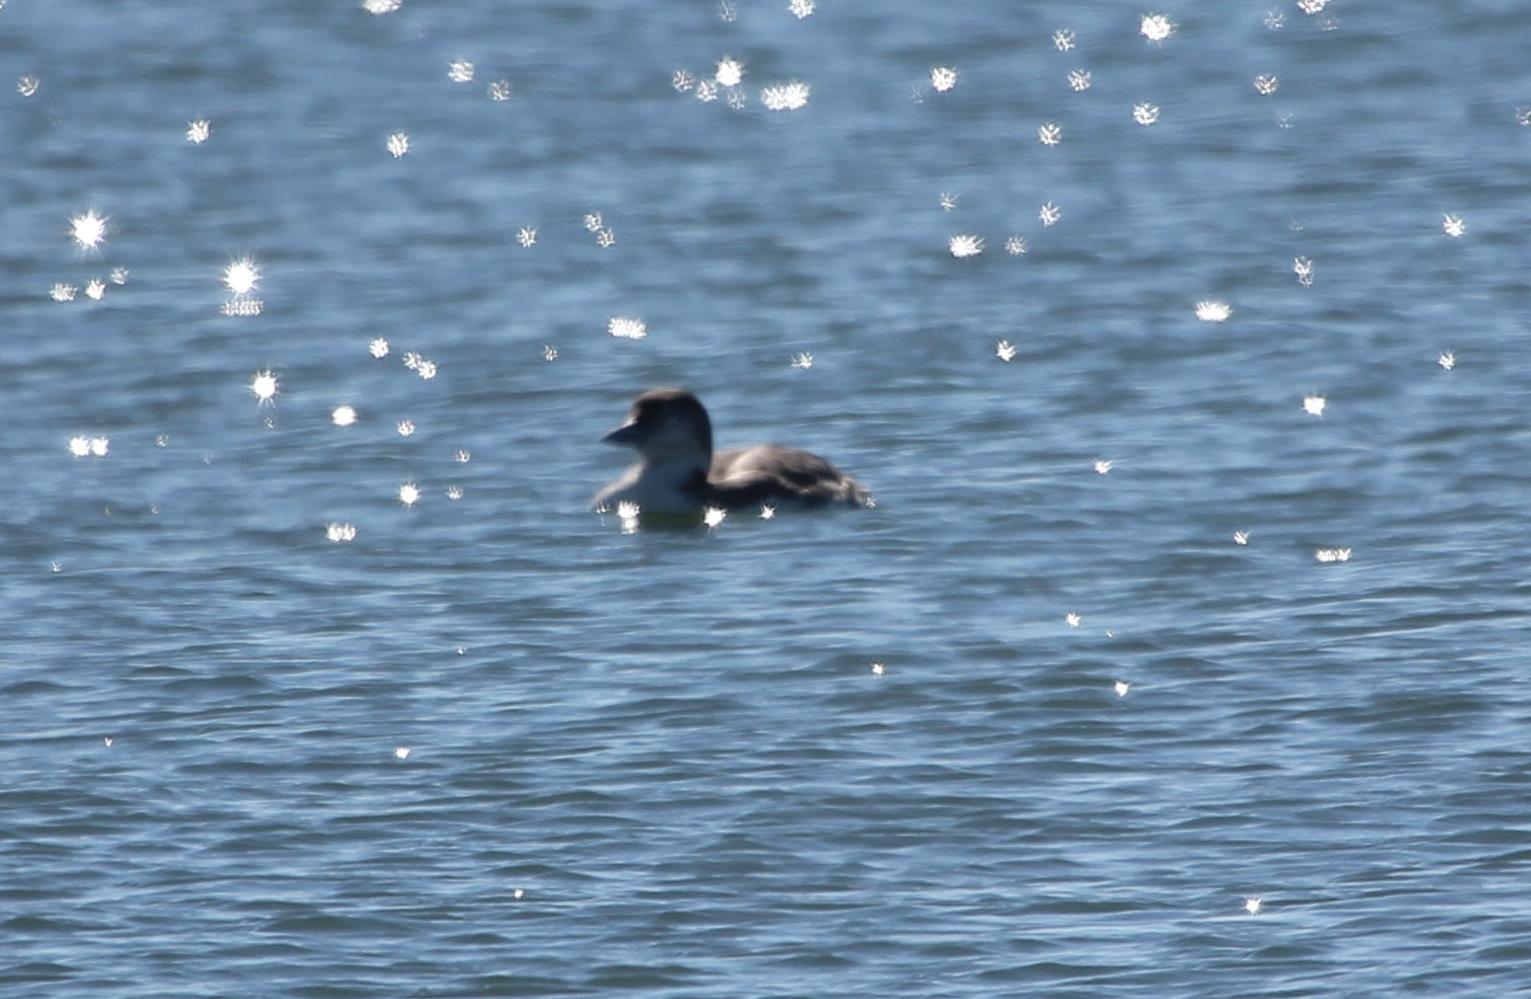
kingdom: Animalia
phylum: Chordata
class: Aves
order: Gaviiformes
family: Gaviidae
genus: Gavia
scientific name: Gavia immer
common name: Common loon
